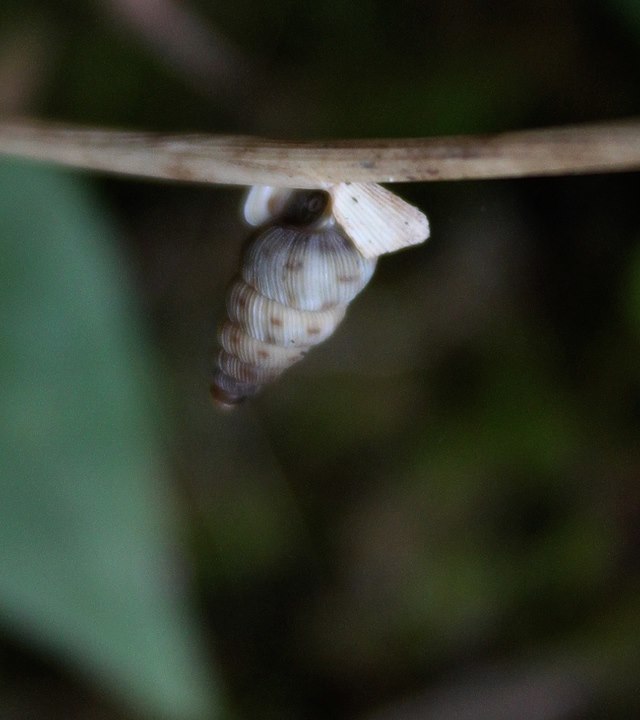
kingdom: Animalia
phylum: Mollusca
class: Gastropoda
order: Architaenioglossa
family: Cochlostomatidae
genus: Cochlostoma
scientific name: Cochlostoma tessellatum
